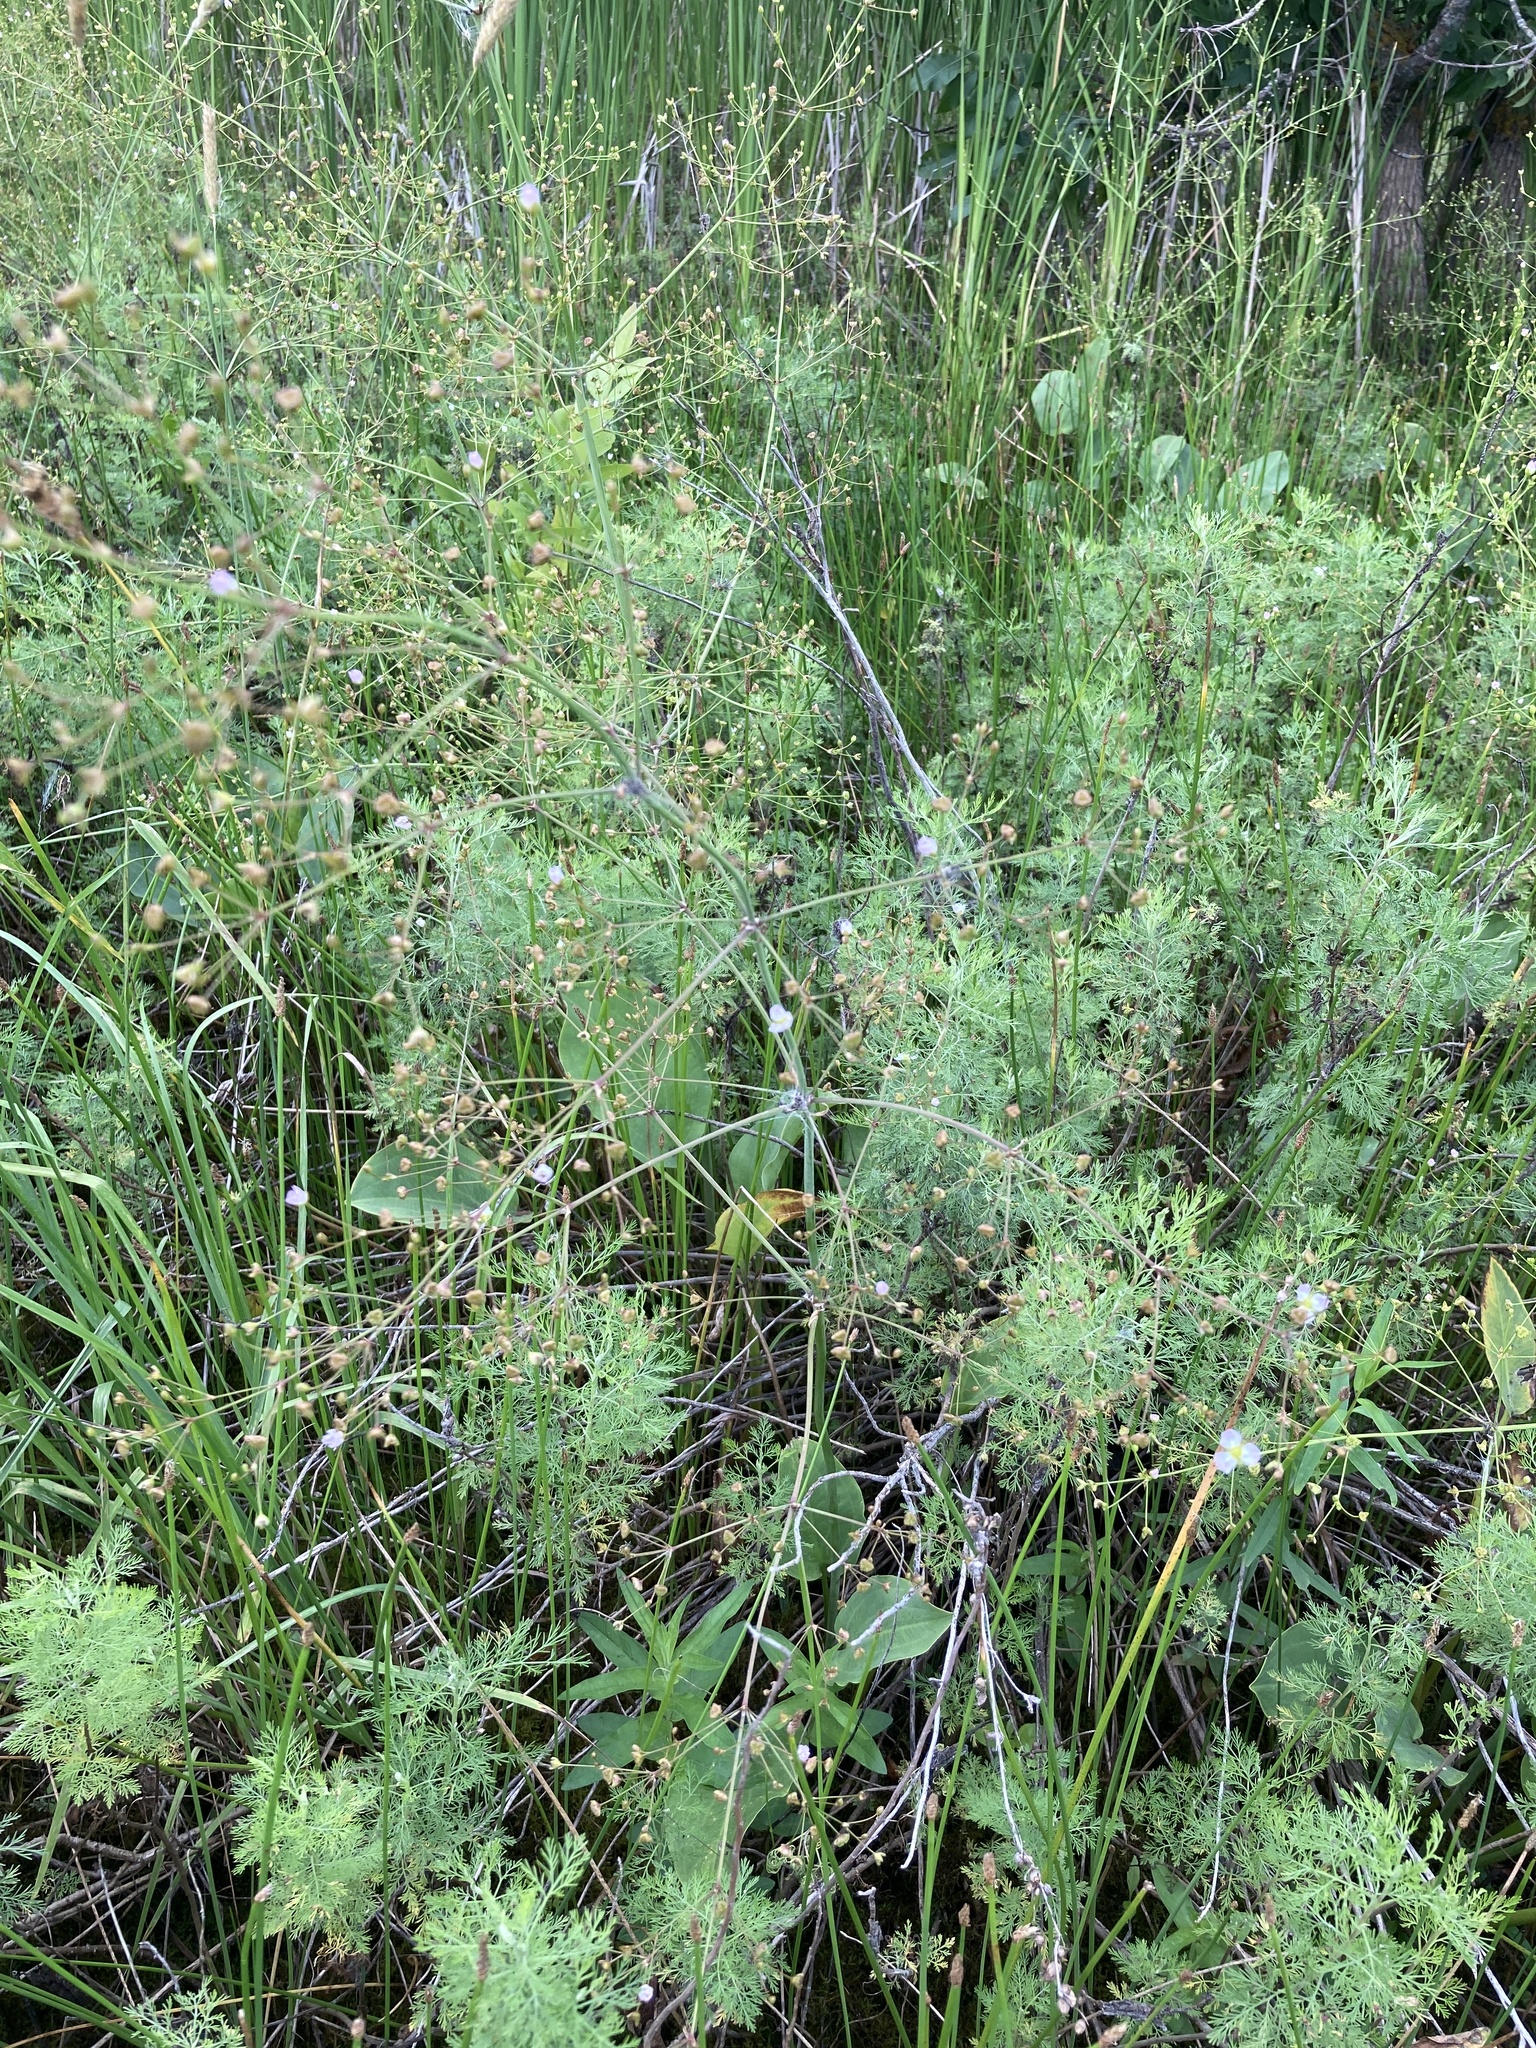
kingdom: Plantae
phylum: Tracheophyta
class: Liliopsida
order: Alismatales
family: Alismataceae
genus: Alisma
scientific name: Alisma plantago-aquatica
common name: Water-plantain
